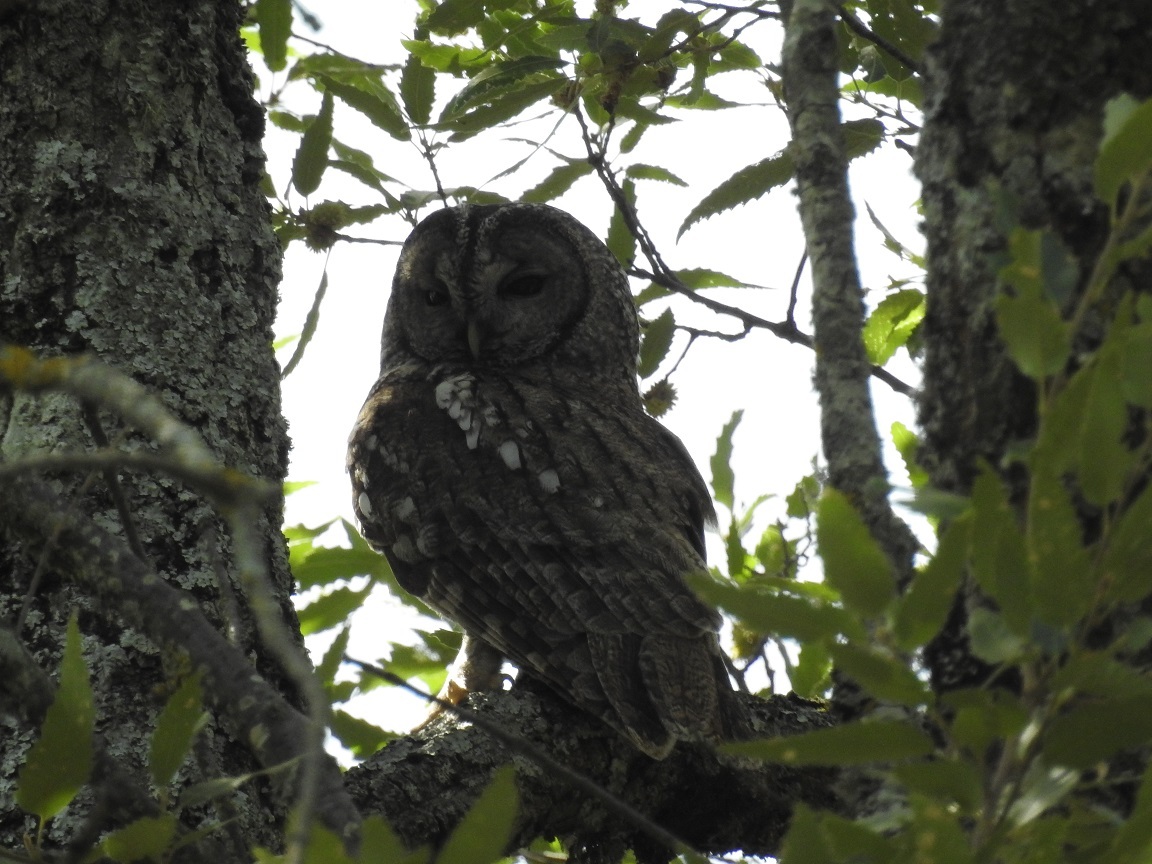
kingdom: Animalia
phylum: Chordata
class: Aves
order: Strigiformes
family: Strigidae
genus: Strix
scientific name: Strix aluco
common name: Tawny owl
